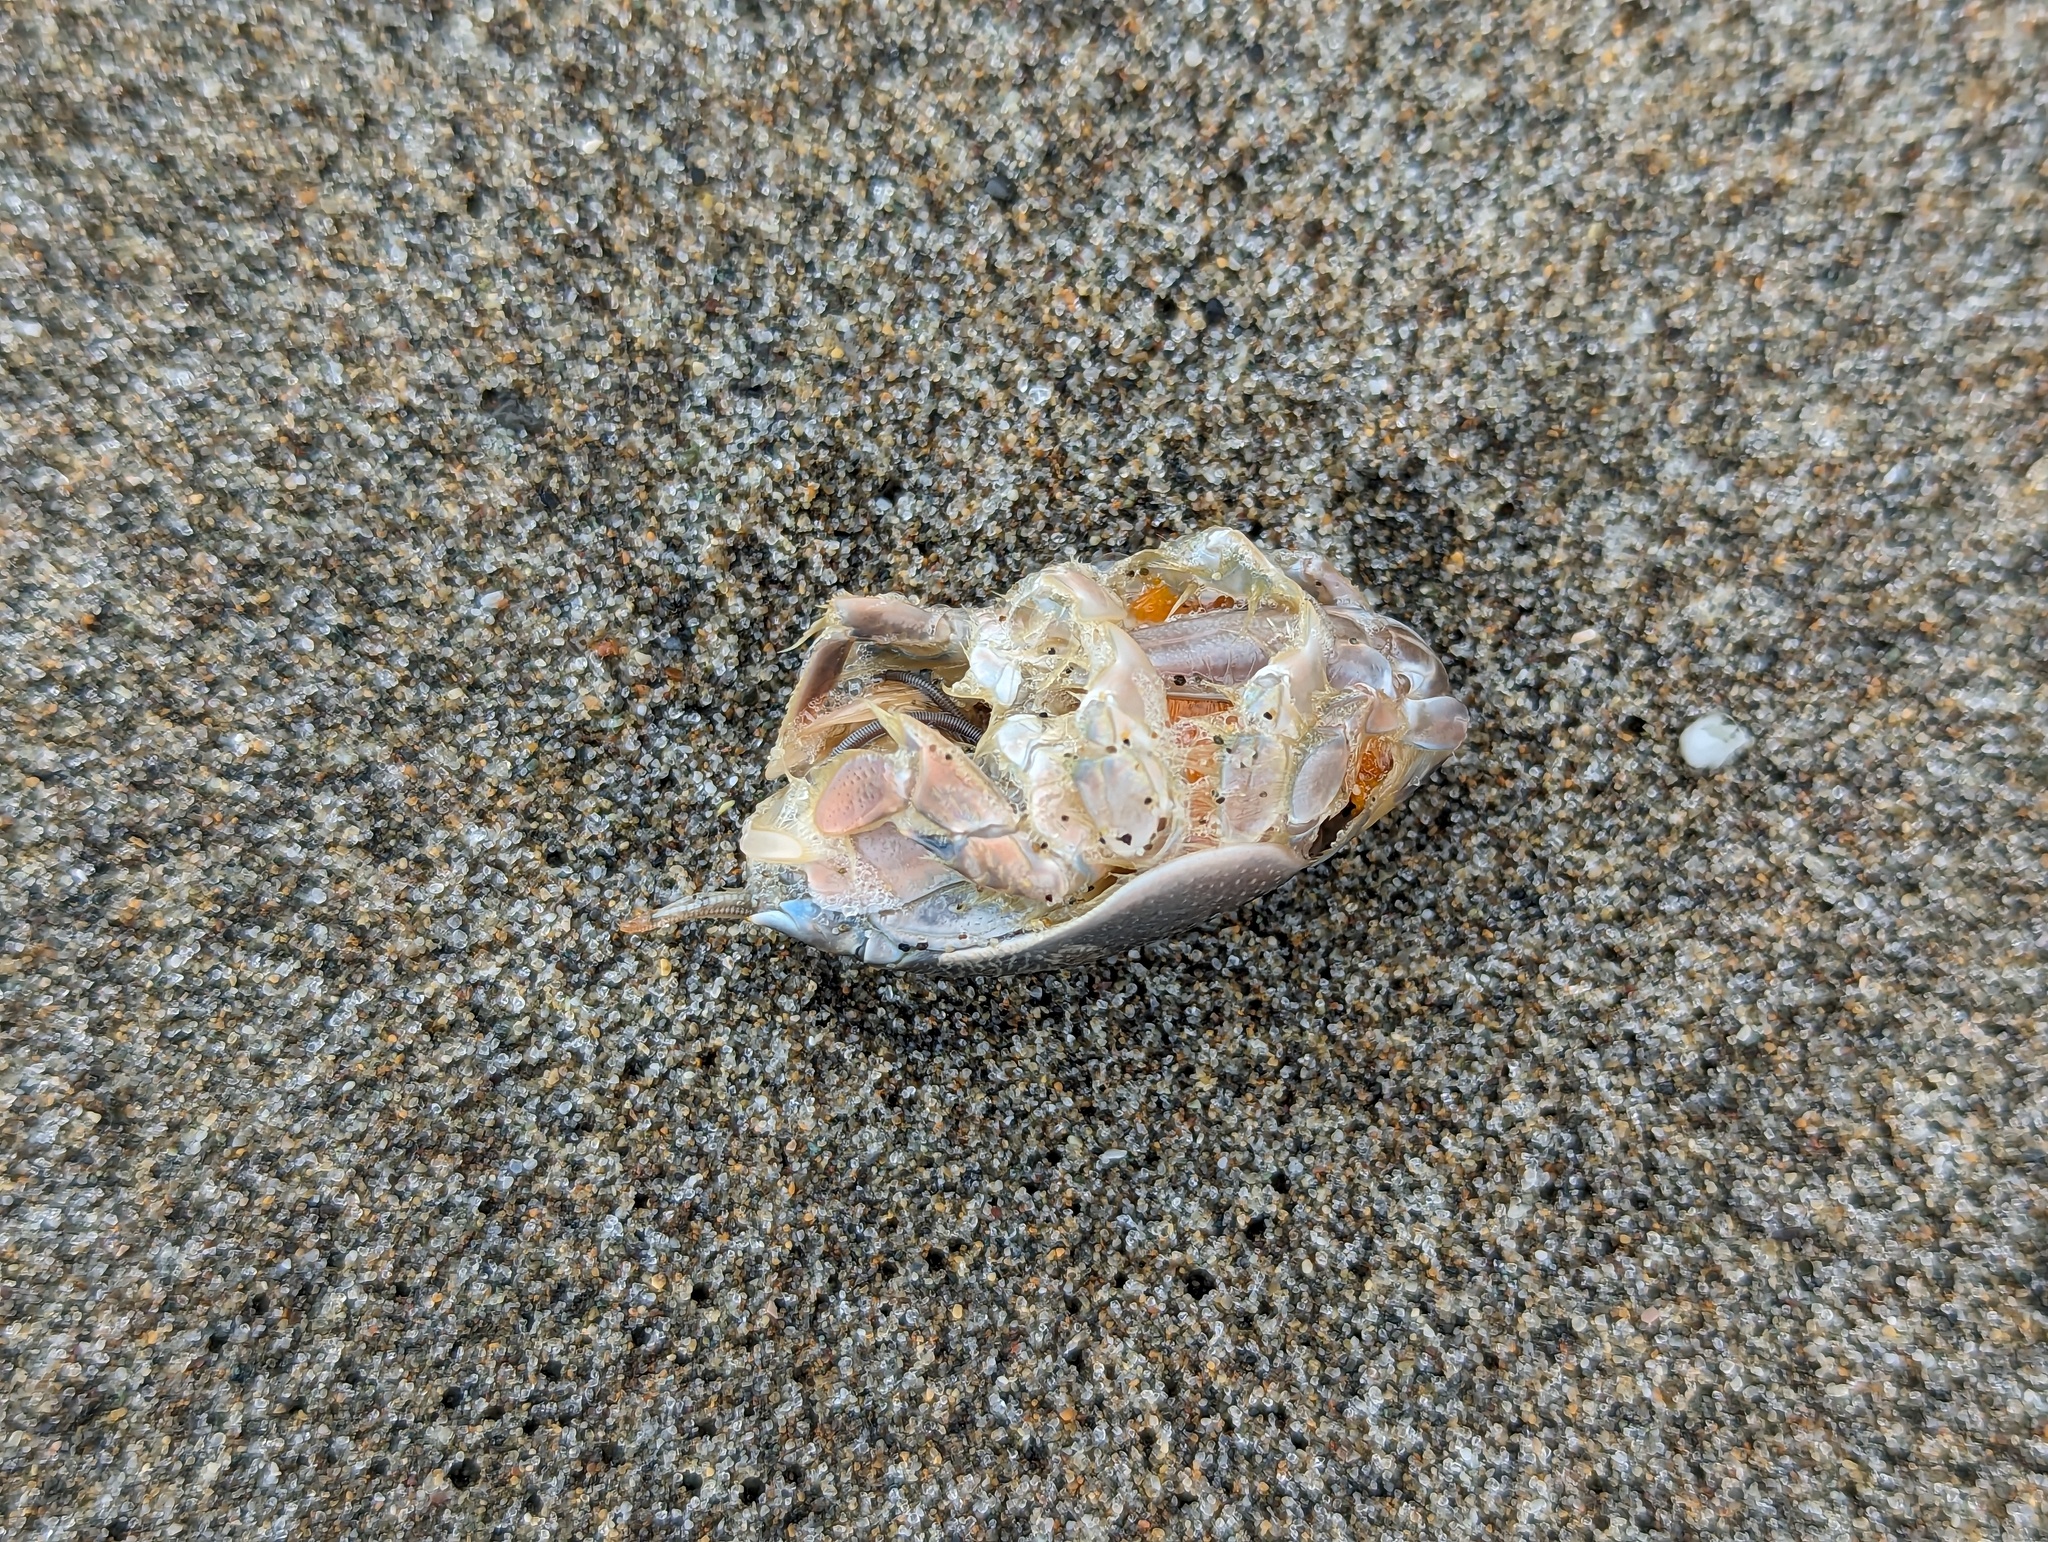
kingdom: Animalia
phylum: Arthropoda
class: Malacostraca
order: Decapoda
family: Hippidae
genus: Emerita
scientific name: Emerita analoga
